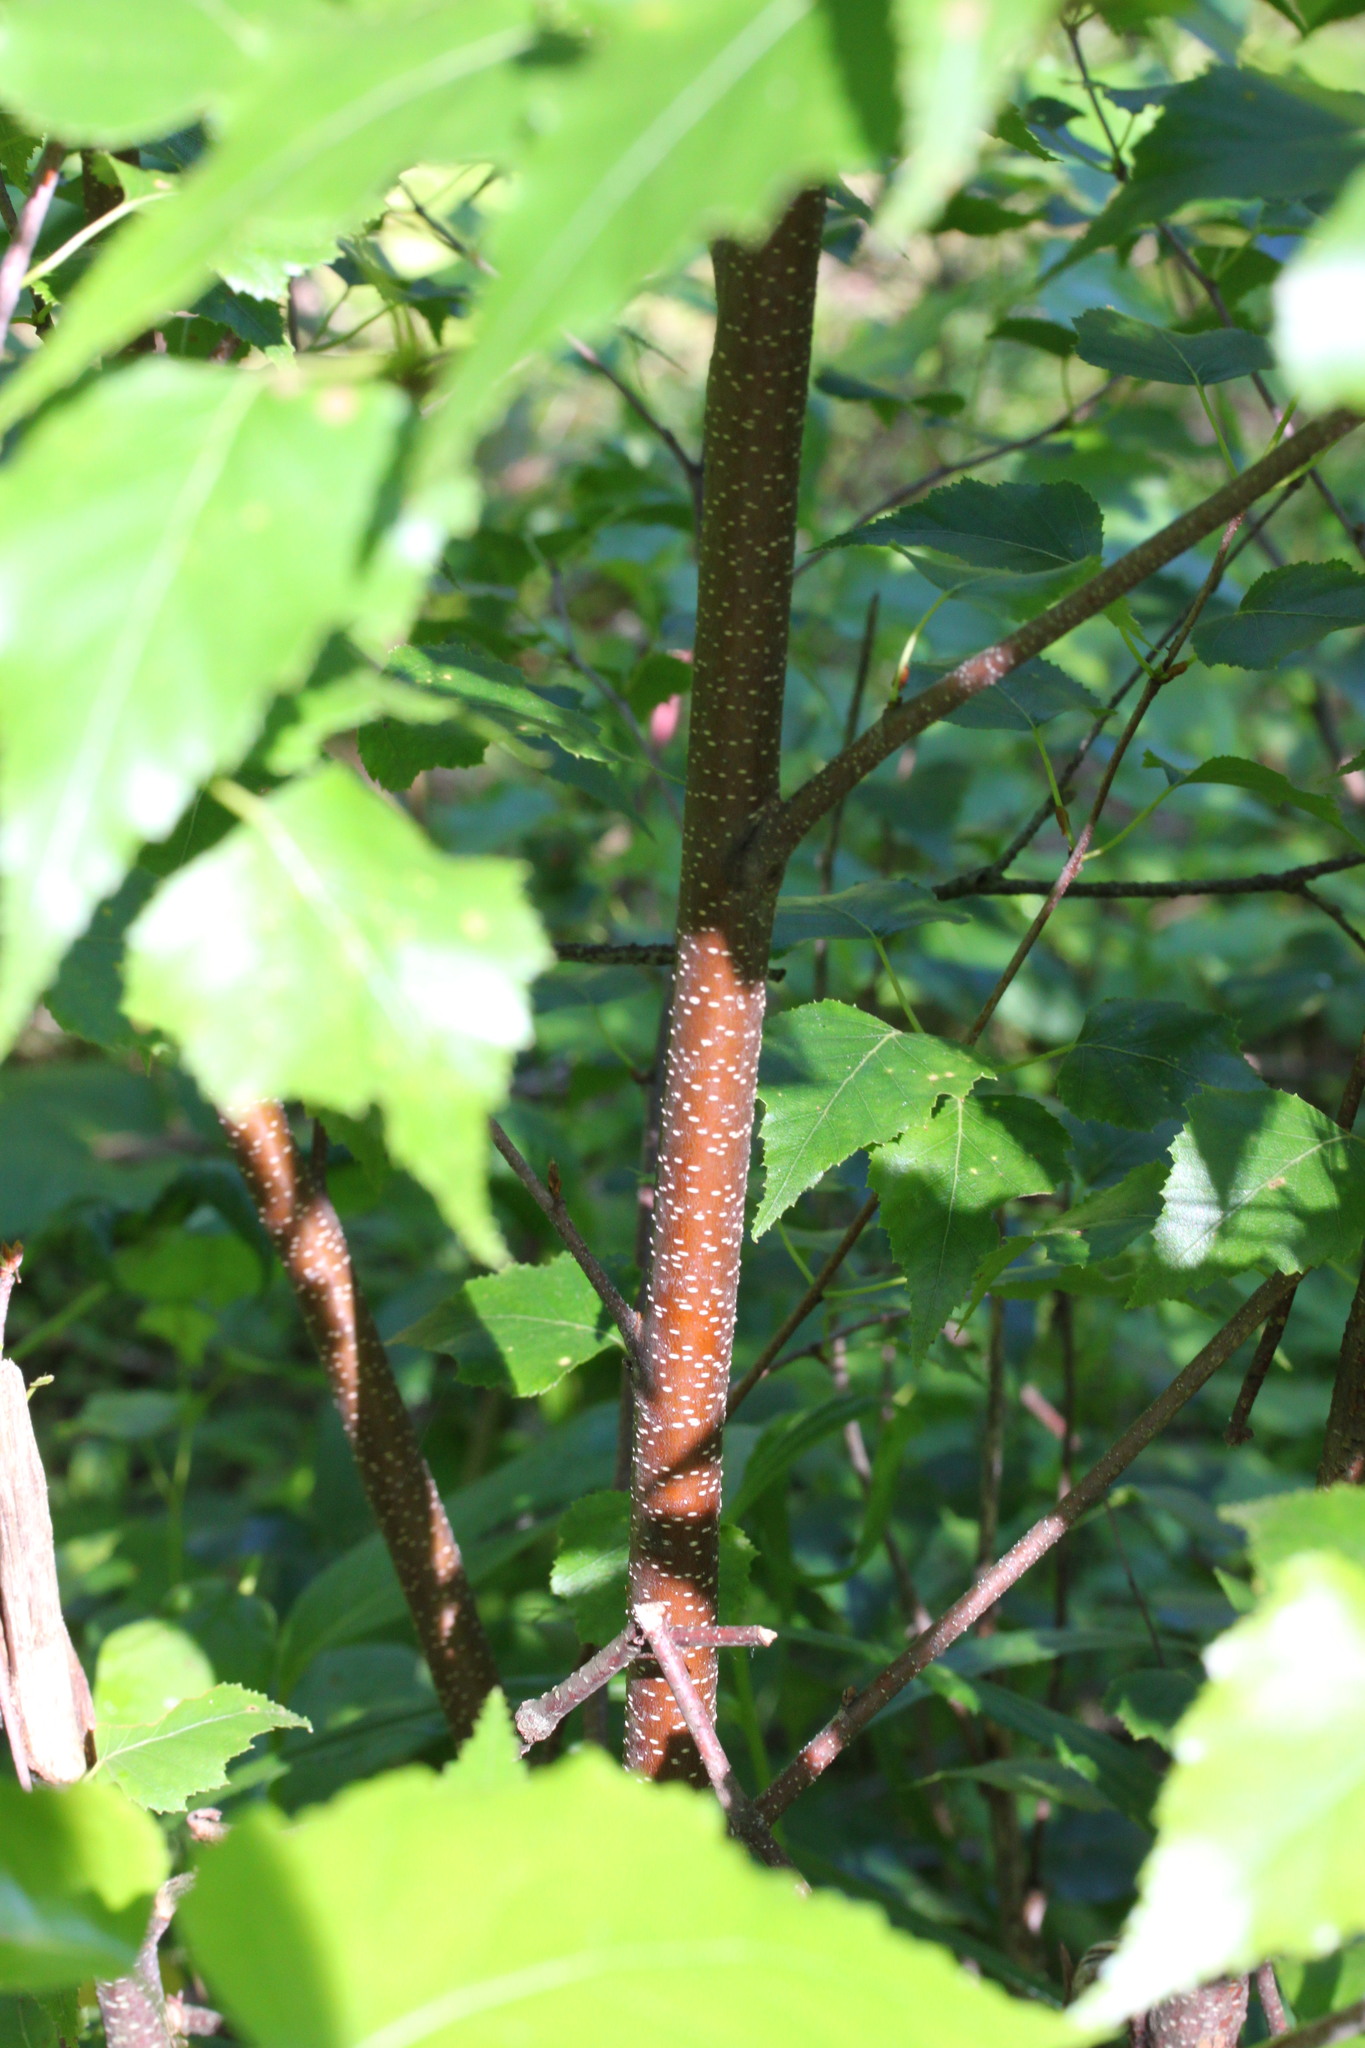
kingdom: Plantae
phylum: Tracheophyta
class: Magnoliopsida
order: Fagales
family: Betulaceae
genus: Betula
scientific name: Betula populifolia
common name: Fire birch
